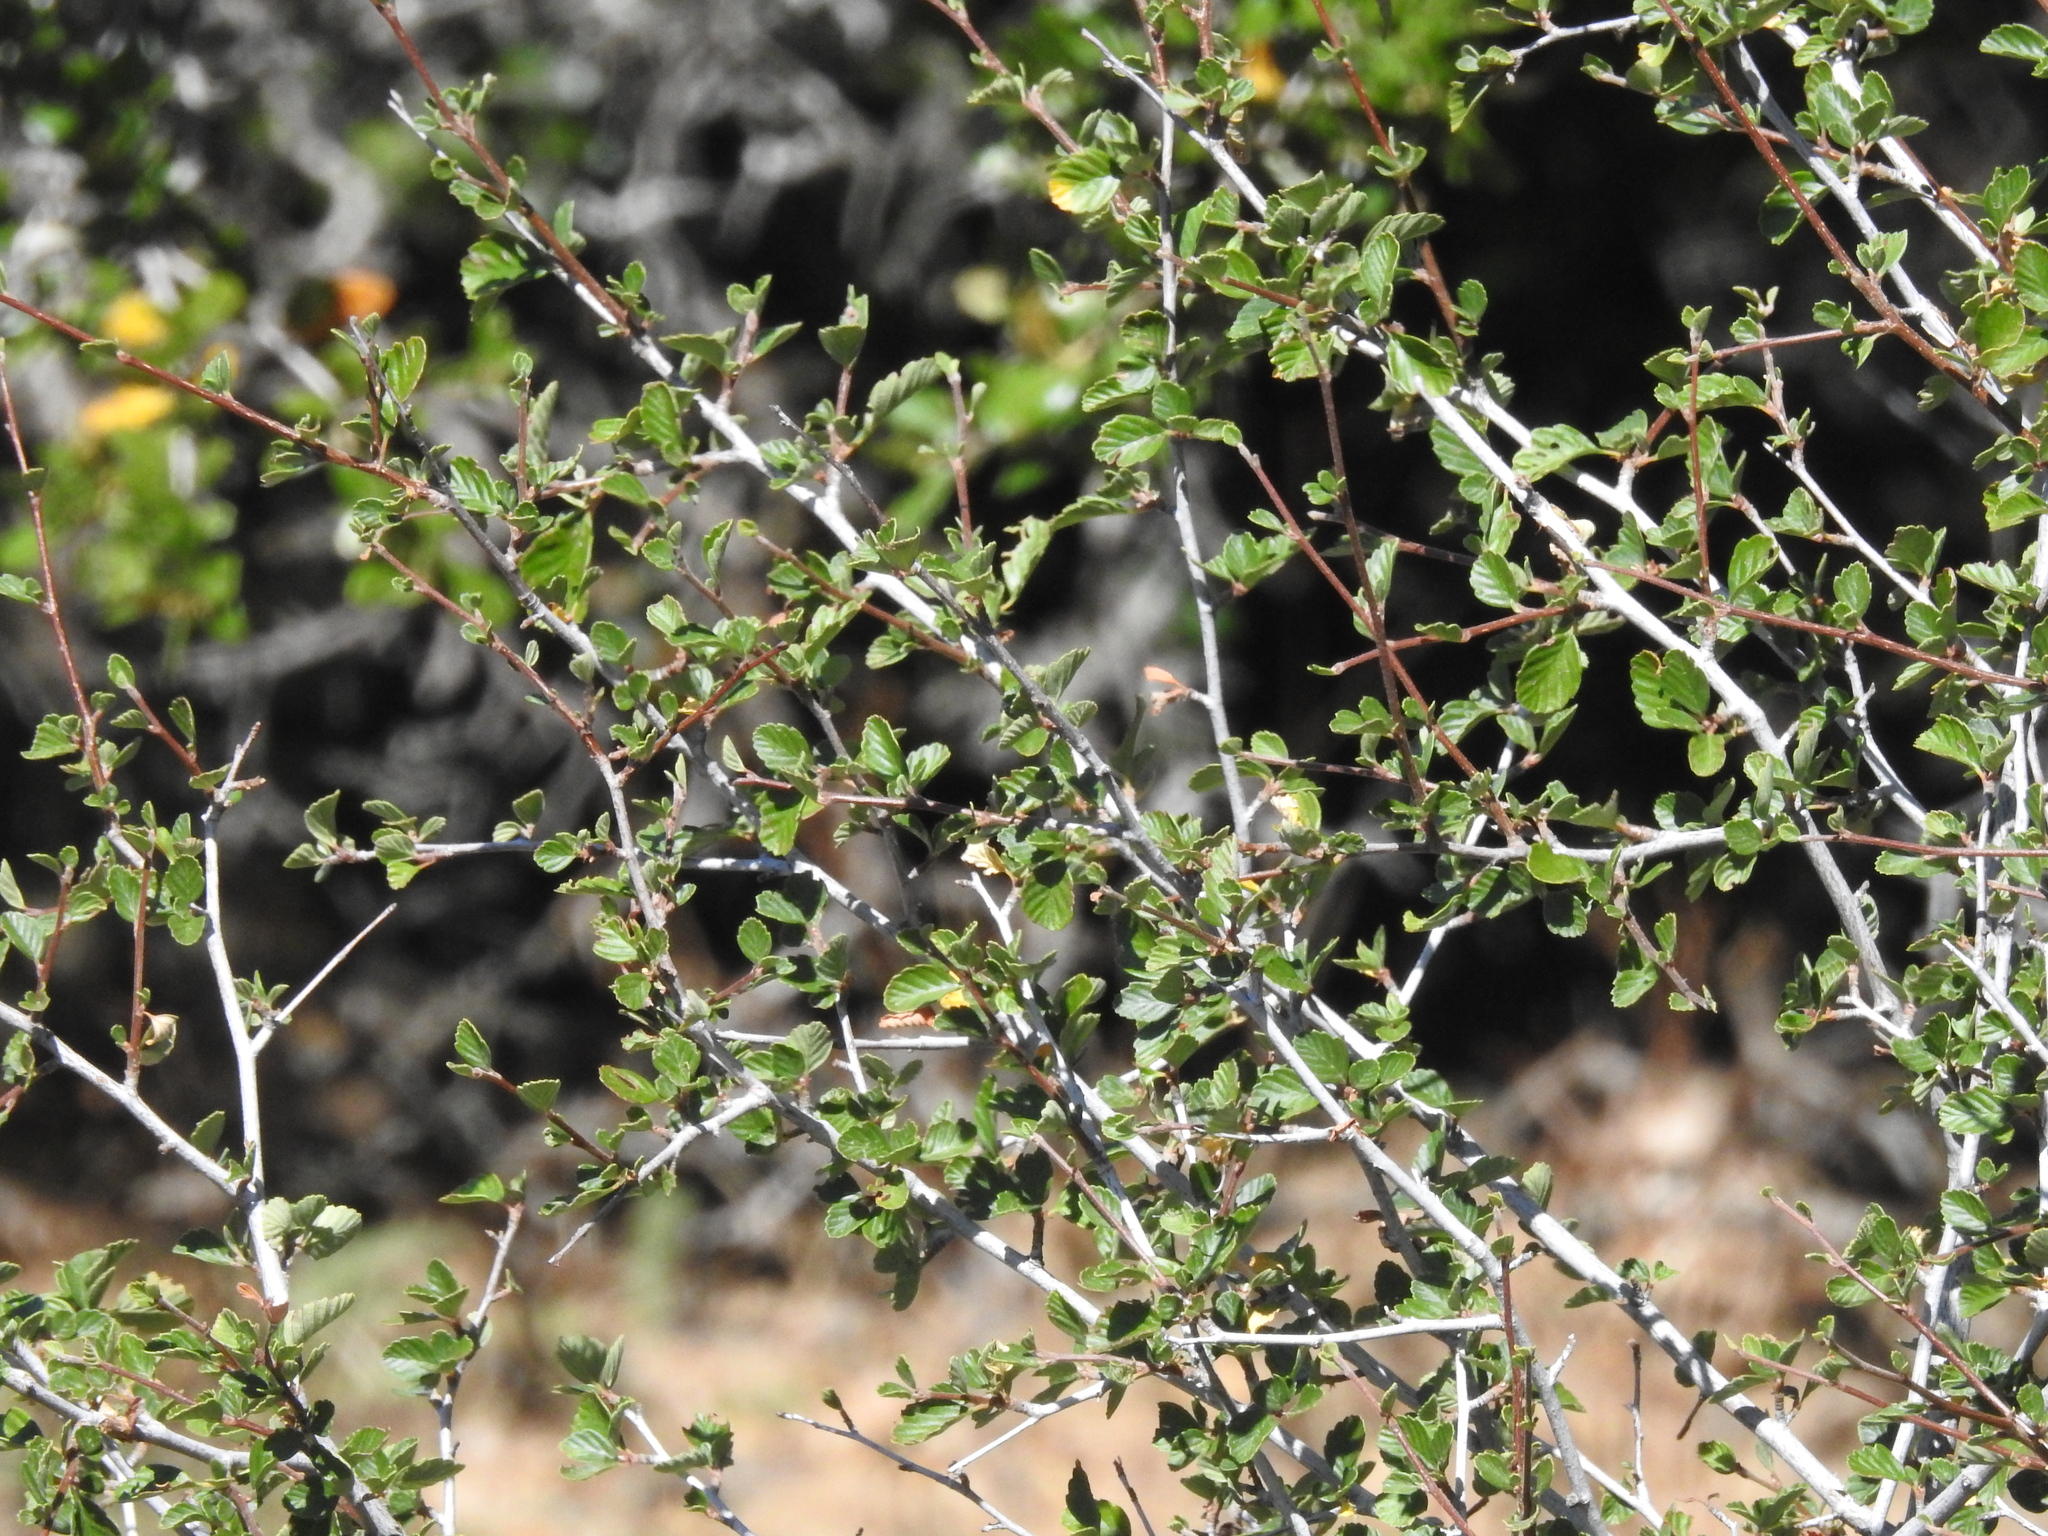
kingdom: Plantae
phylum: Tracheophyta
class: Magnoliopsida
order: Rosales
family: Rosaceae
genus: Cercocarpus
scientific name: Cercocarpus betuloides
